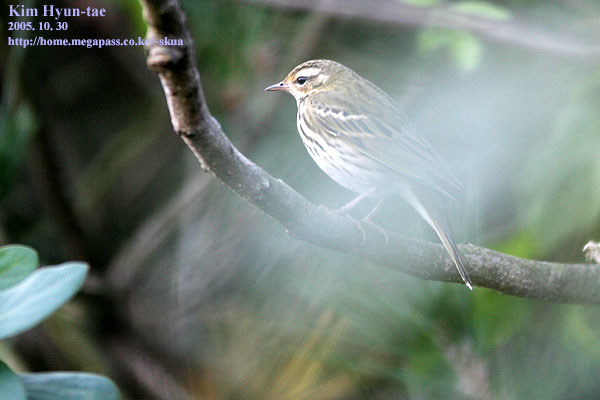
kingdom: Animalia
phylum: Chordata
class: Aves
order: Passeriformes
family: Motacillidae
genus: Anthus
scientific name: Anthus hodgsoni
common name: Olive-backed pipit
